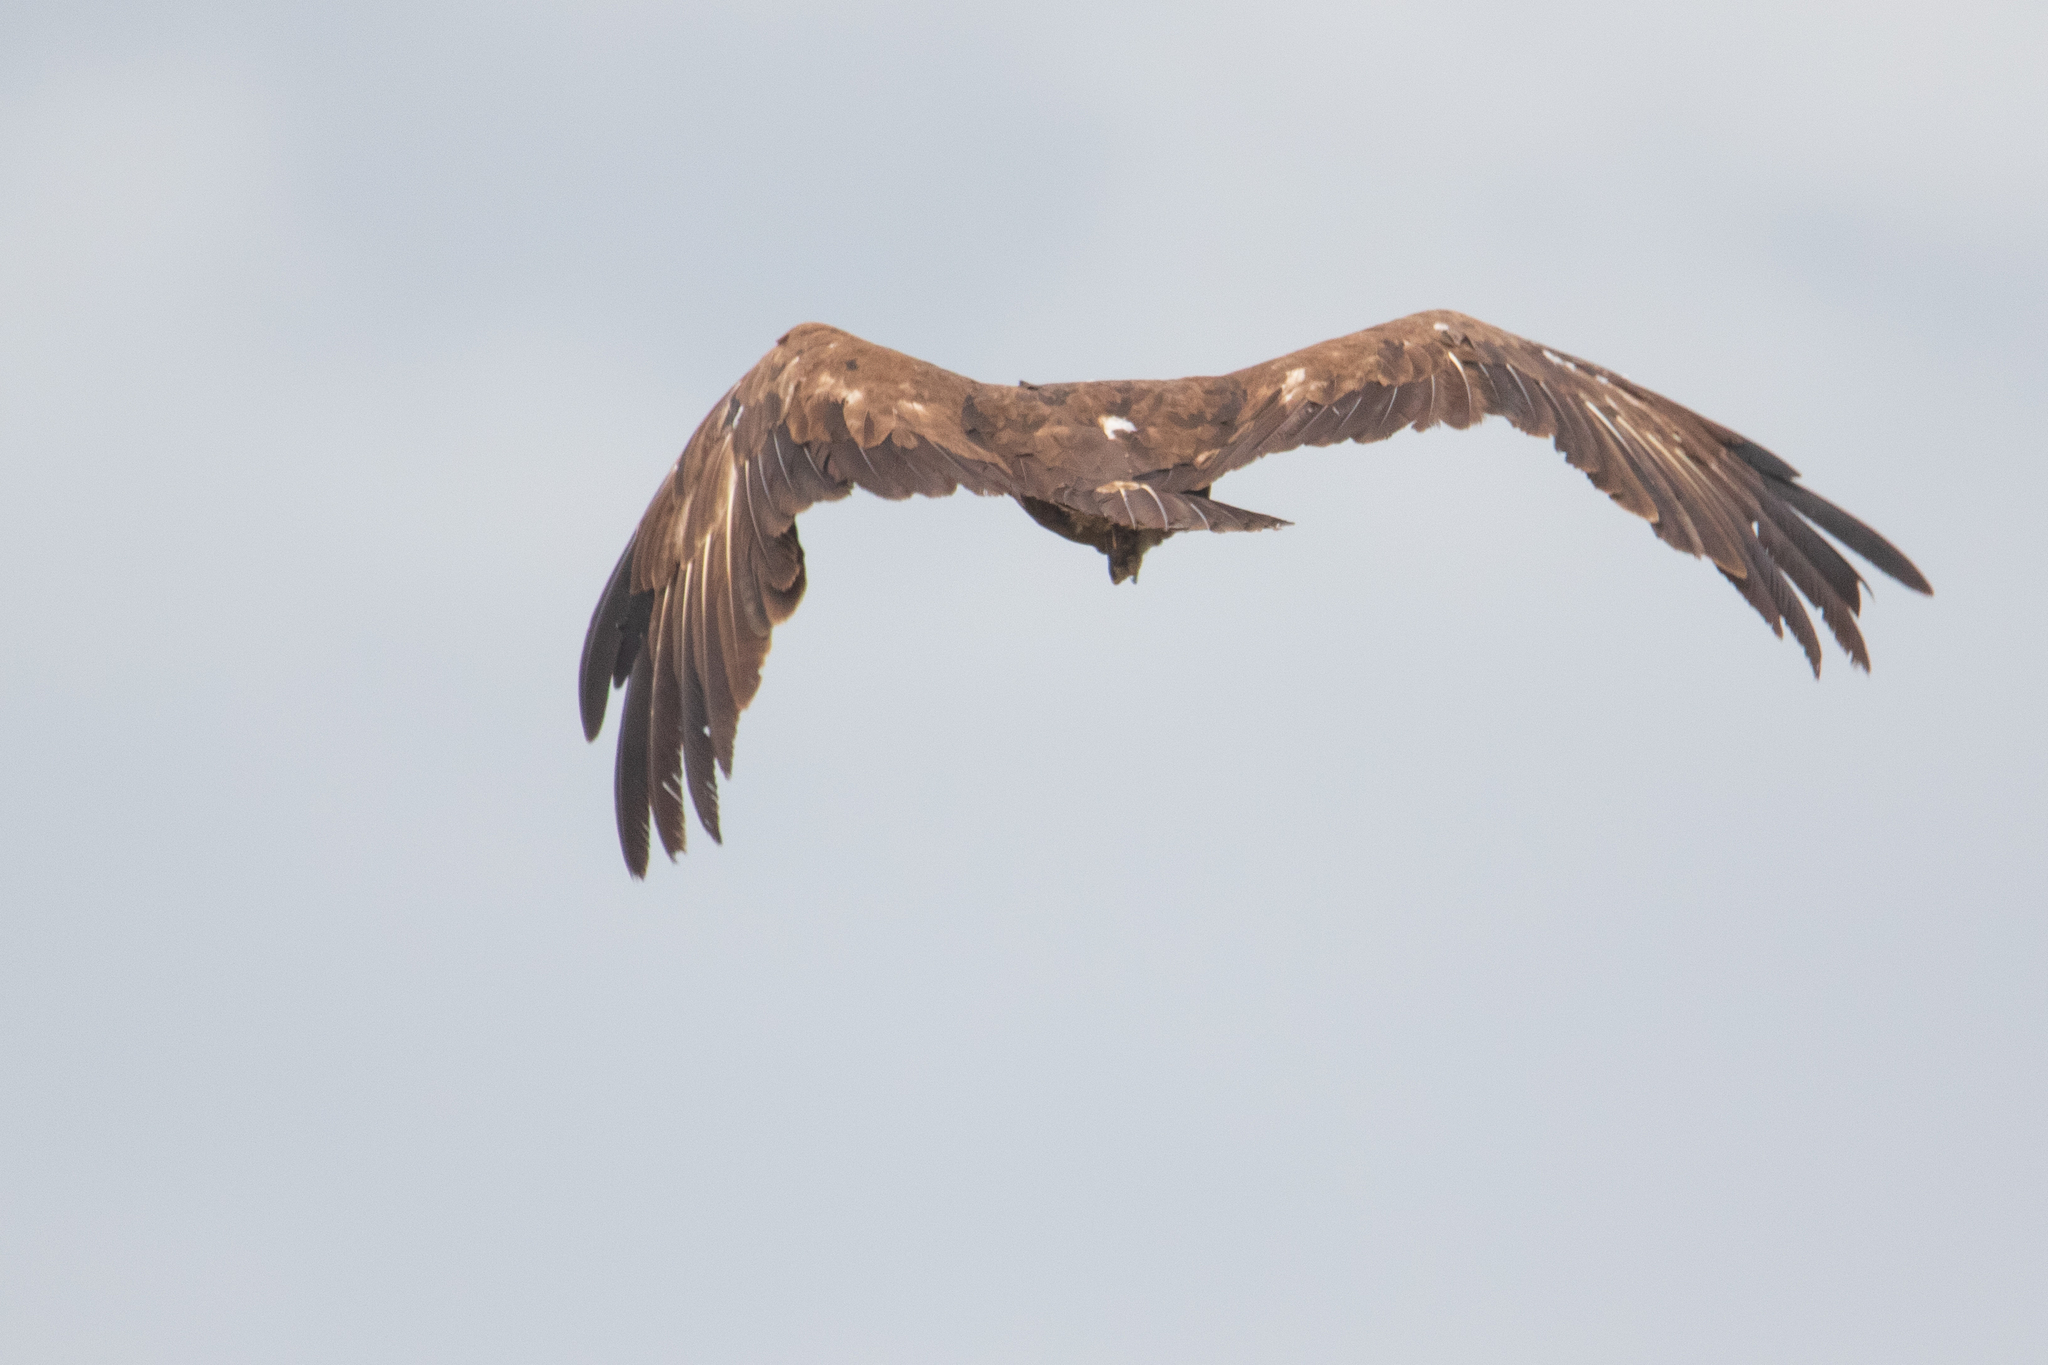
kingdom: Animalia
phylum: Chordata
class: Aves
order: Accipitriformes
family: Accipitridae
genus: Aquila
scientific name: Aquila clanga
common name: Greater spotted eagle
